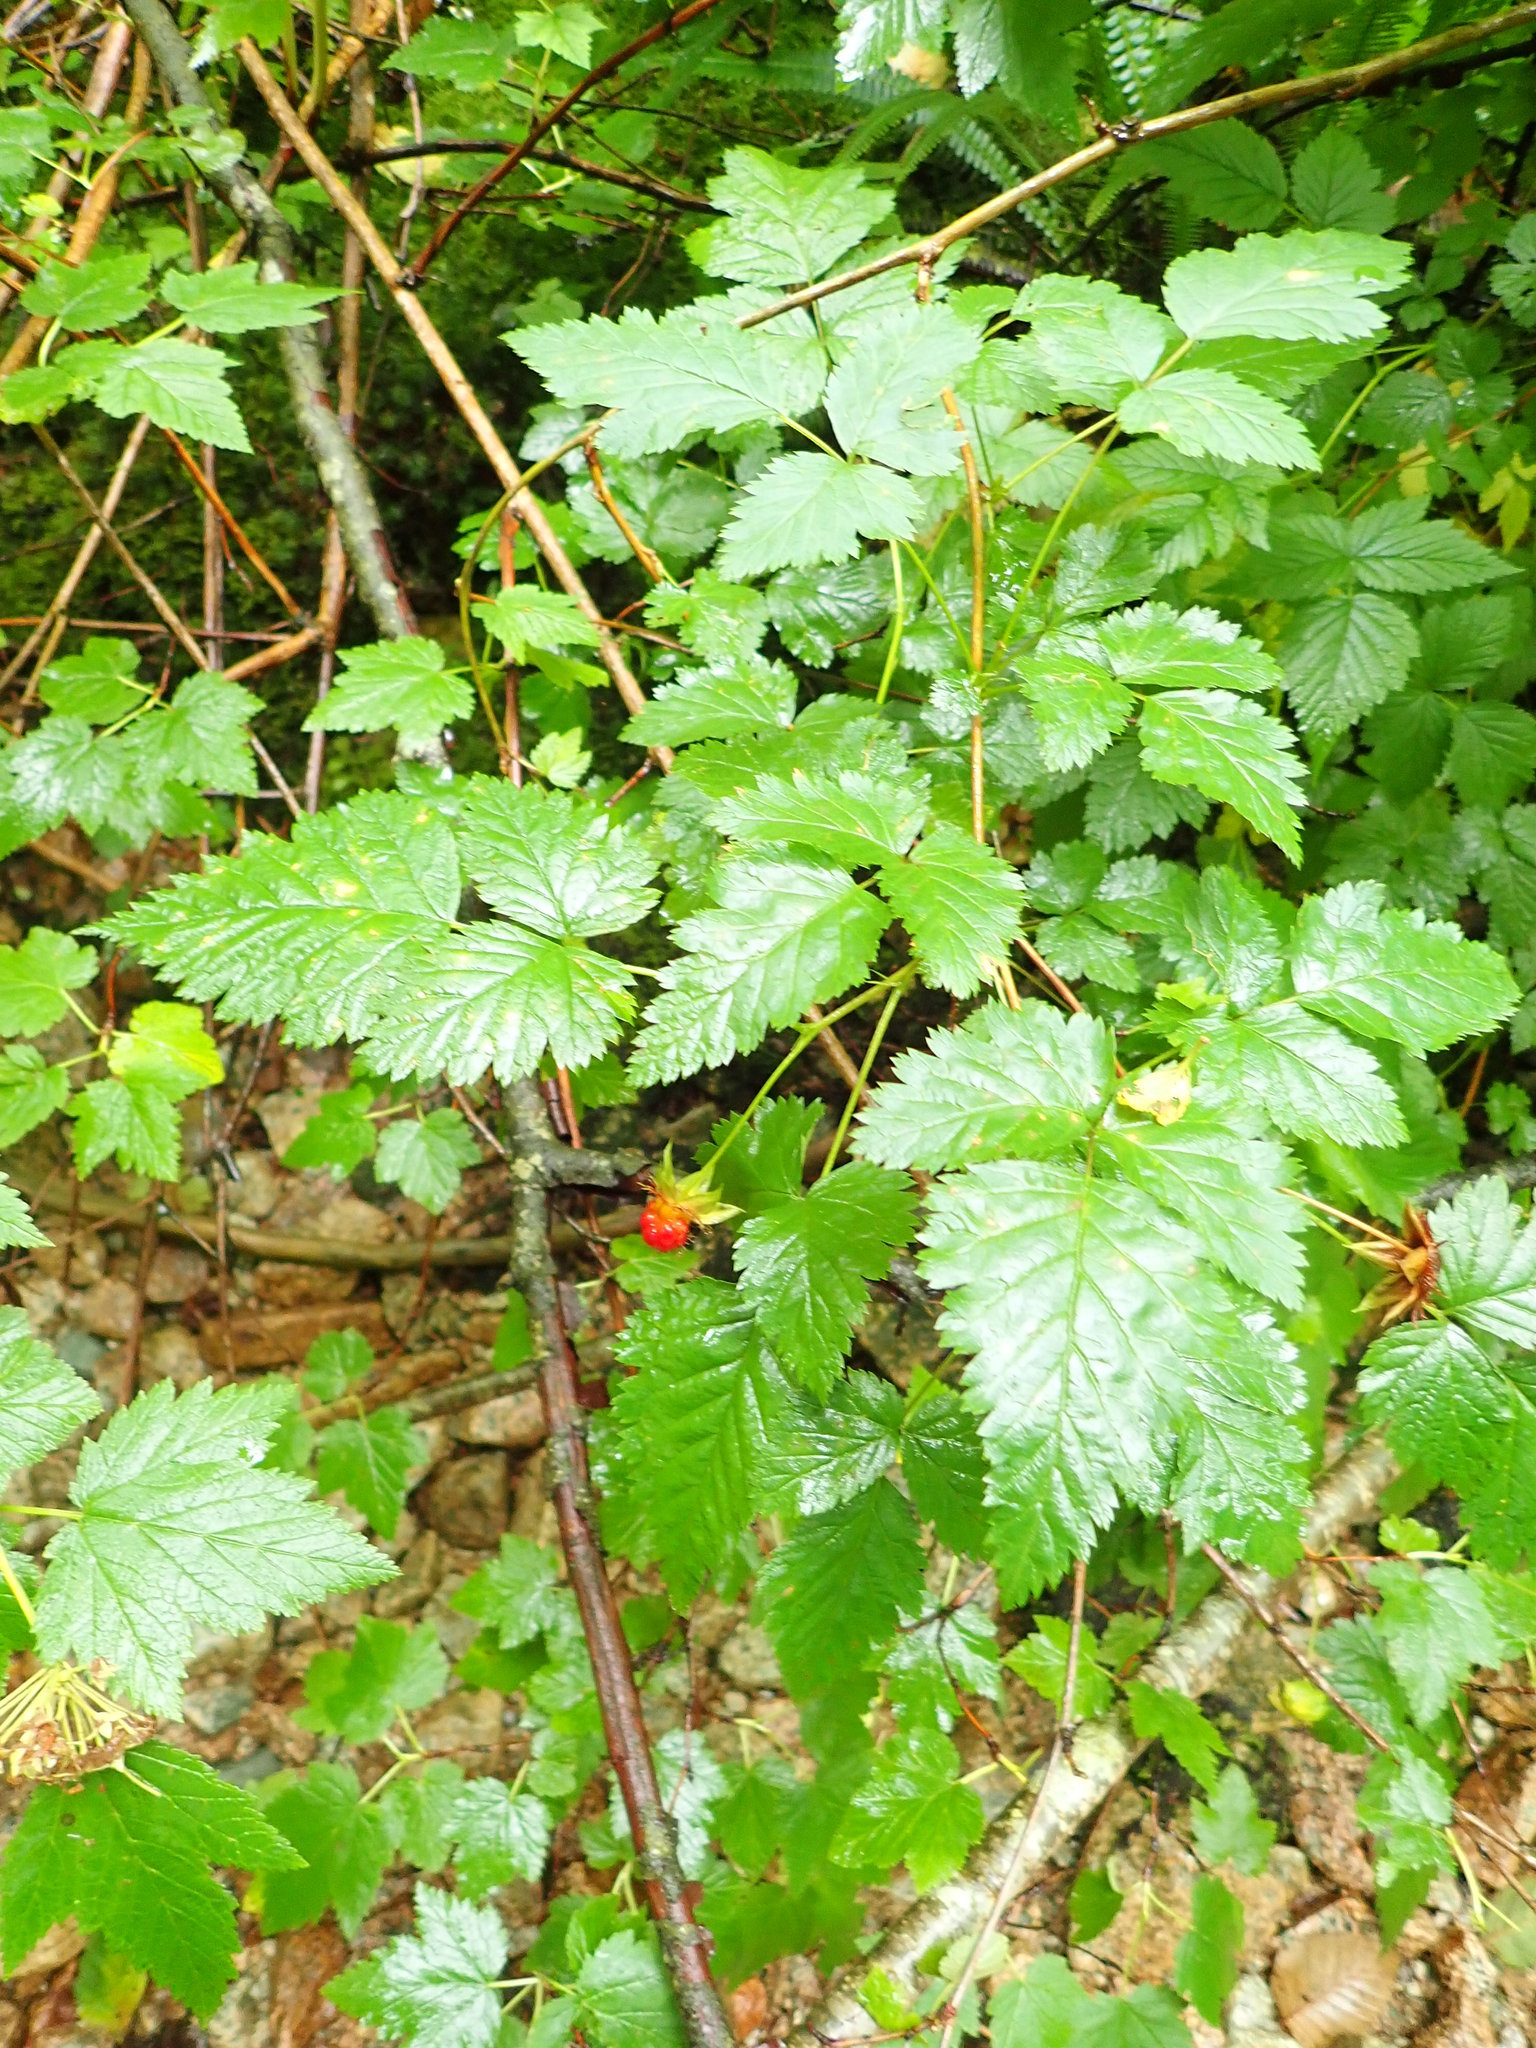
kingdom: Plantae
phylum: Tracheophyta
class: Magnoliopsida
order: Rosales
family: Rosaceae
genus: Rubus
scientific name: Rubus spectabilis
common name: Salmonberry
